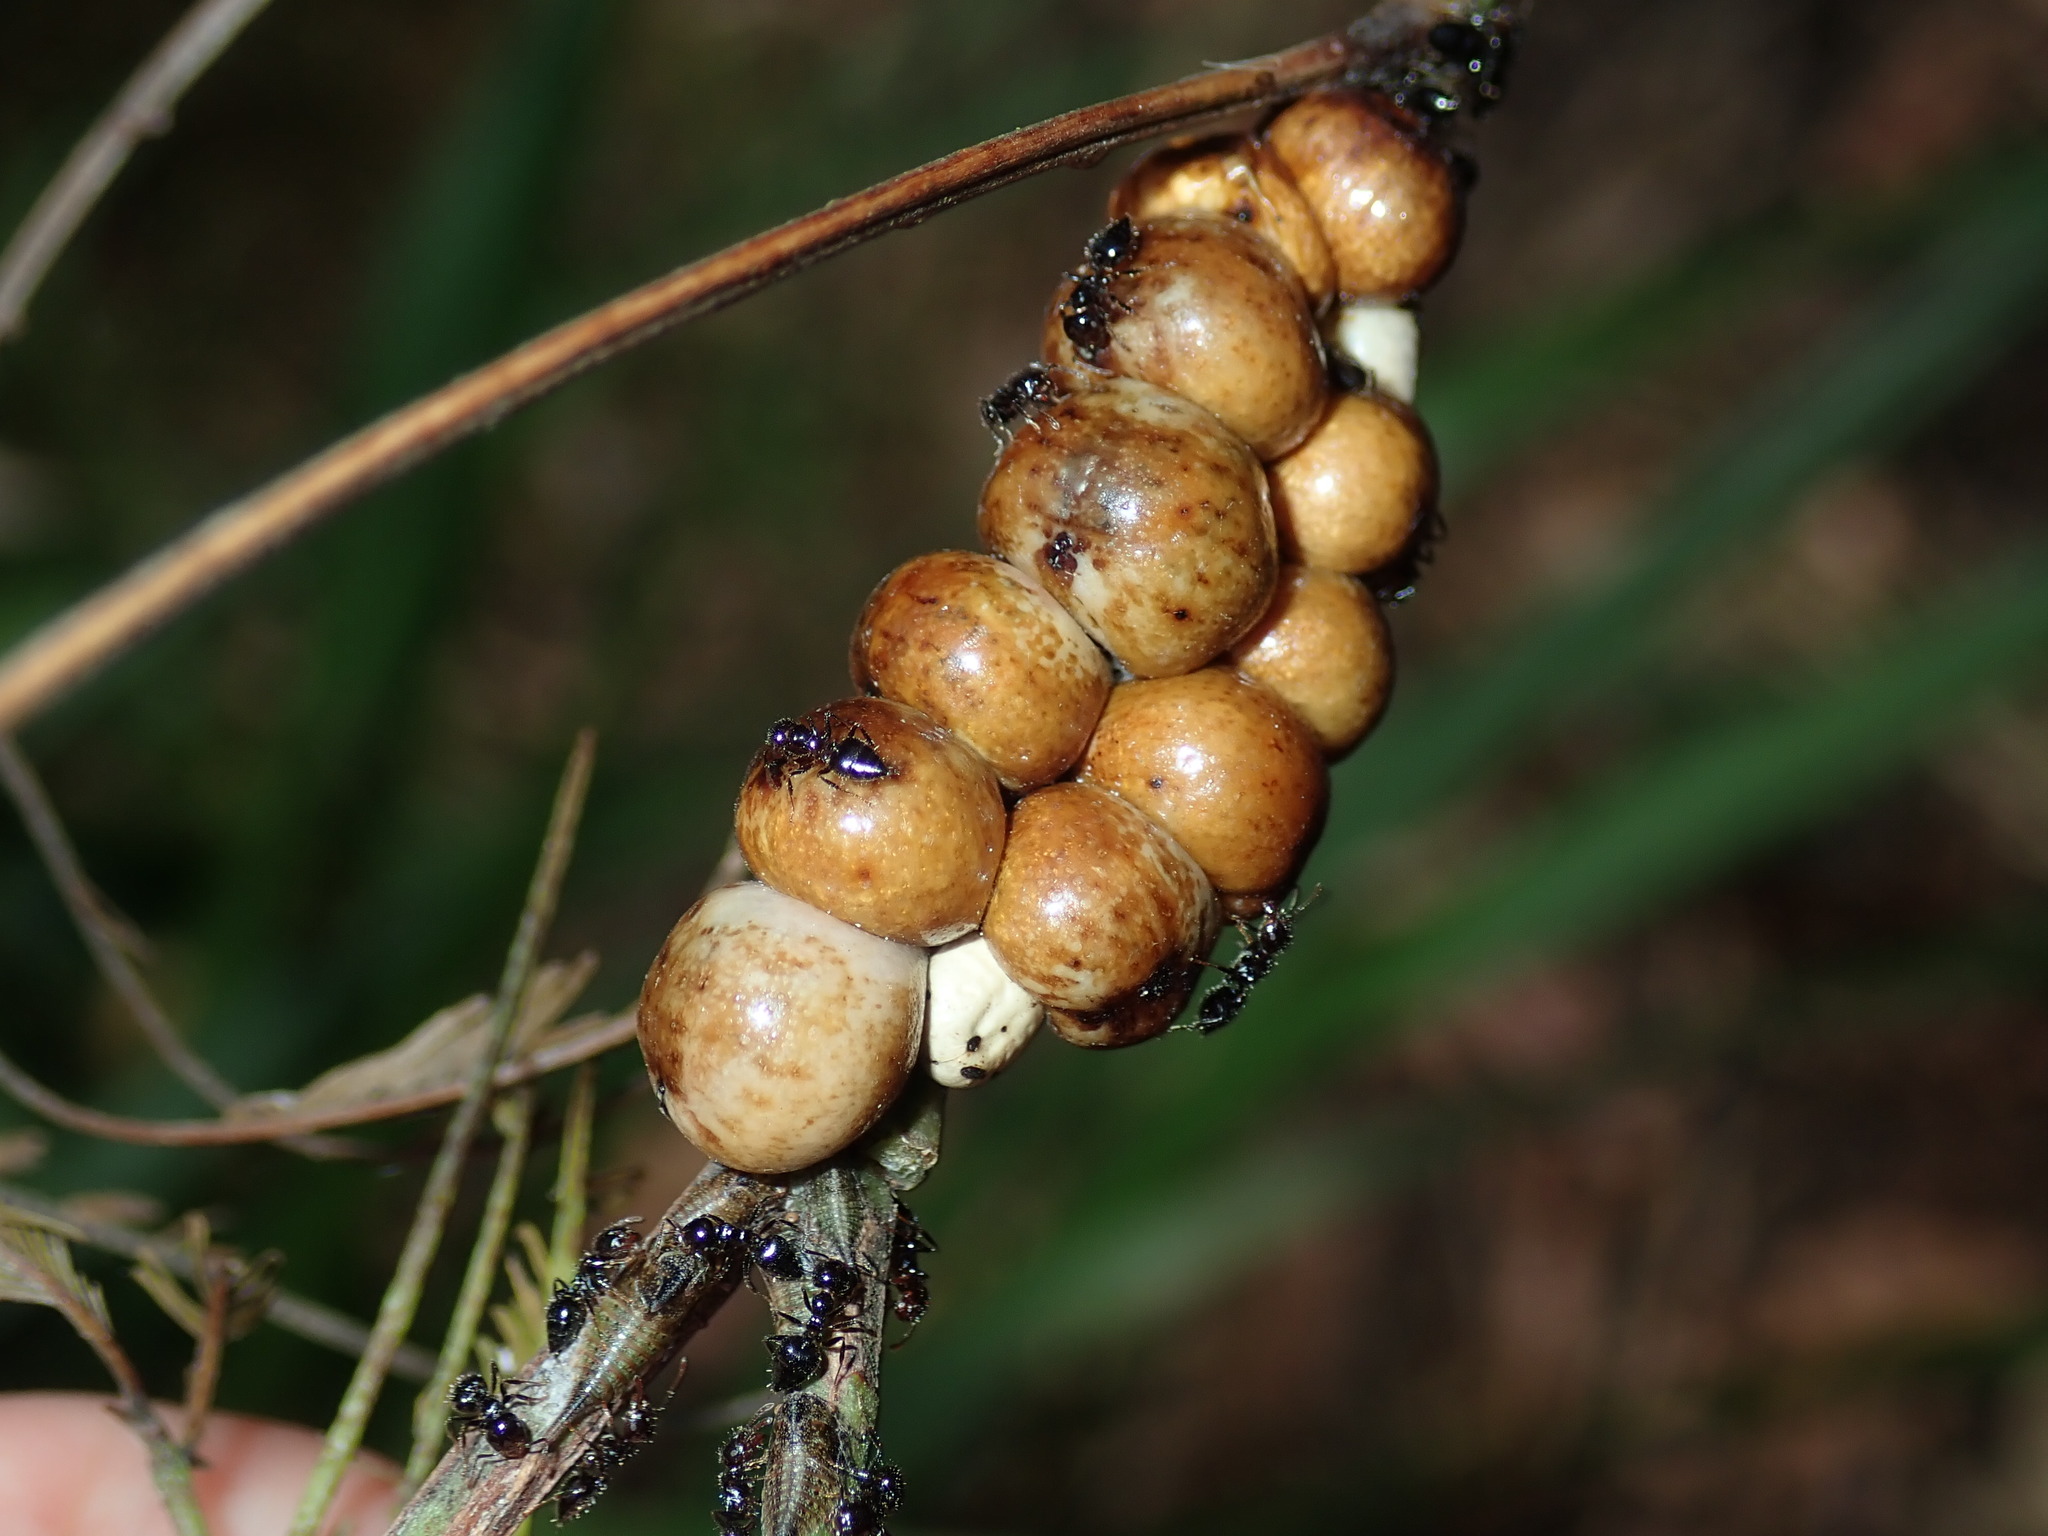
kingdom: Animalia
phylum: Arthropoda
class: Insecta
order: Hemiptera
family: Coccidae
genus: Cryptes
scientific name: Cryptes baccatus
